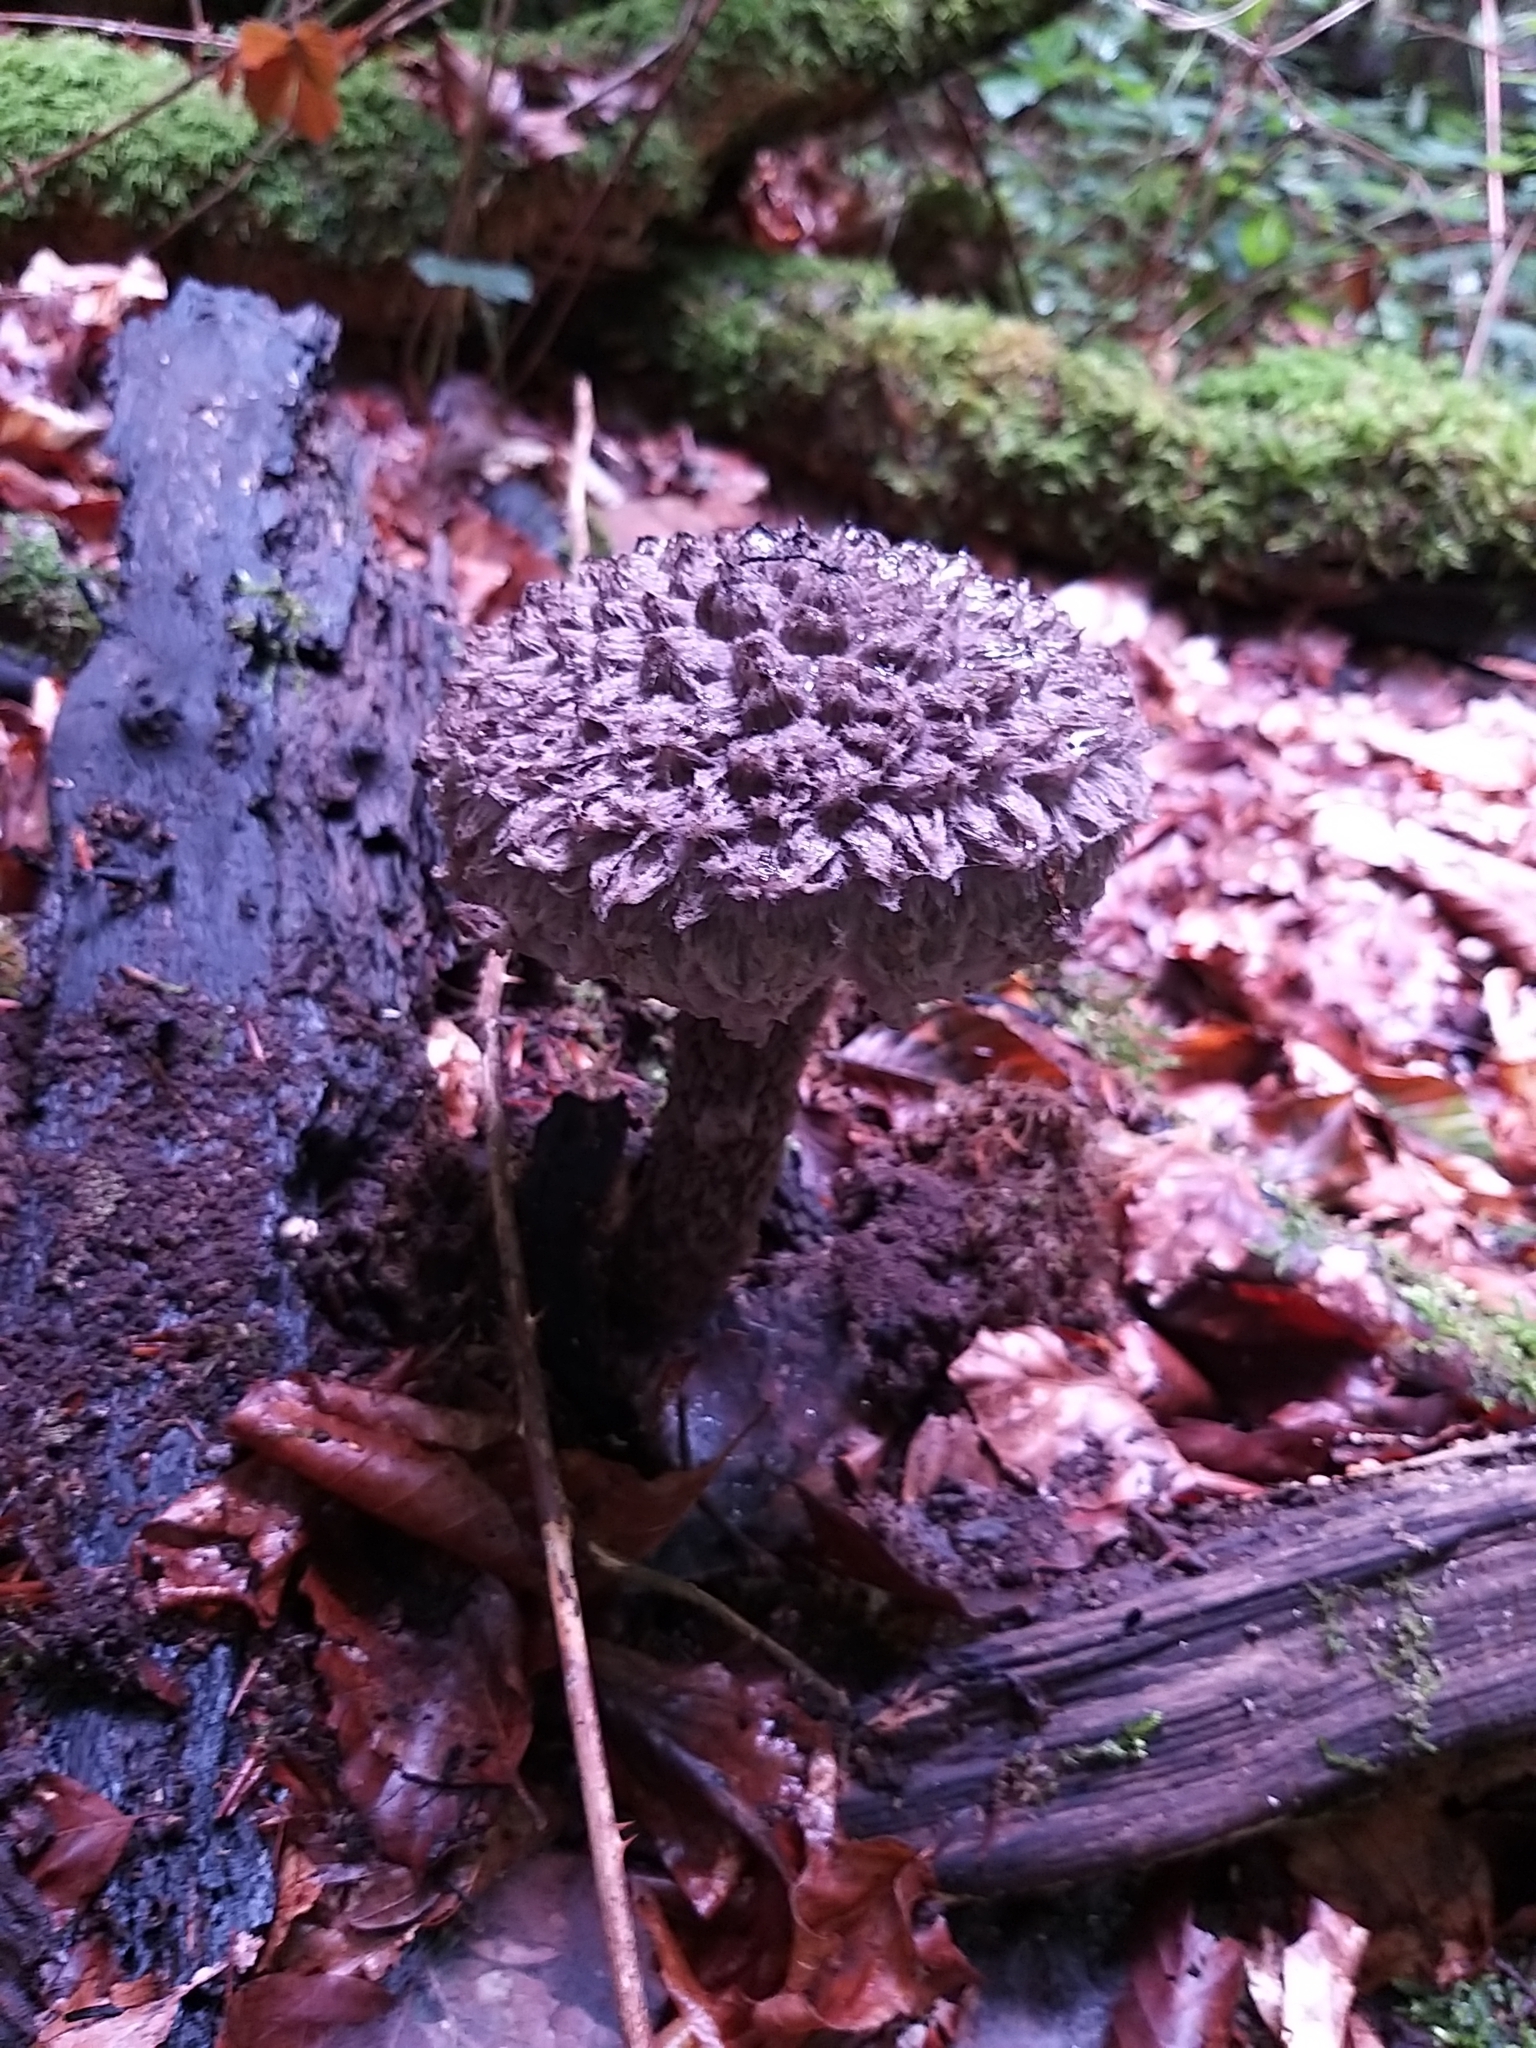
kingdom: Fungi
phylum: Basidiomycota
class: Agaricomycetes
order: Boletales
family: Boletaceae
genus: Strobilomyces
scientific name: Strobilomyces strobilaceus
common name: Old man of the woods
